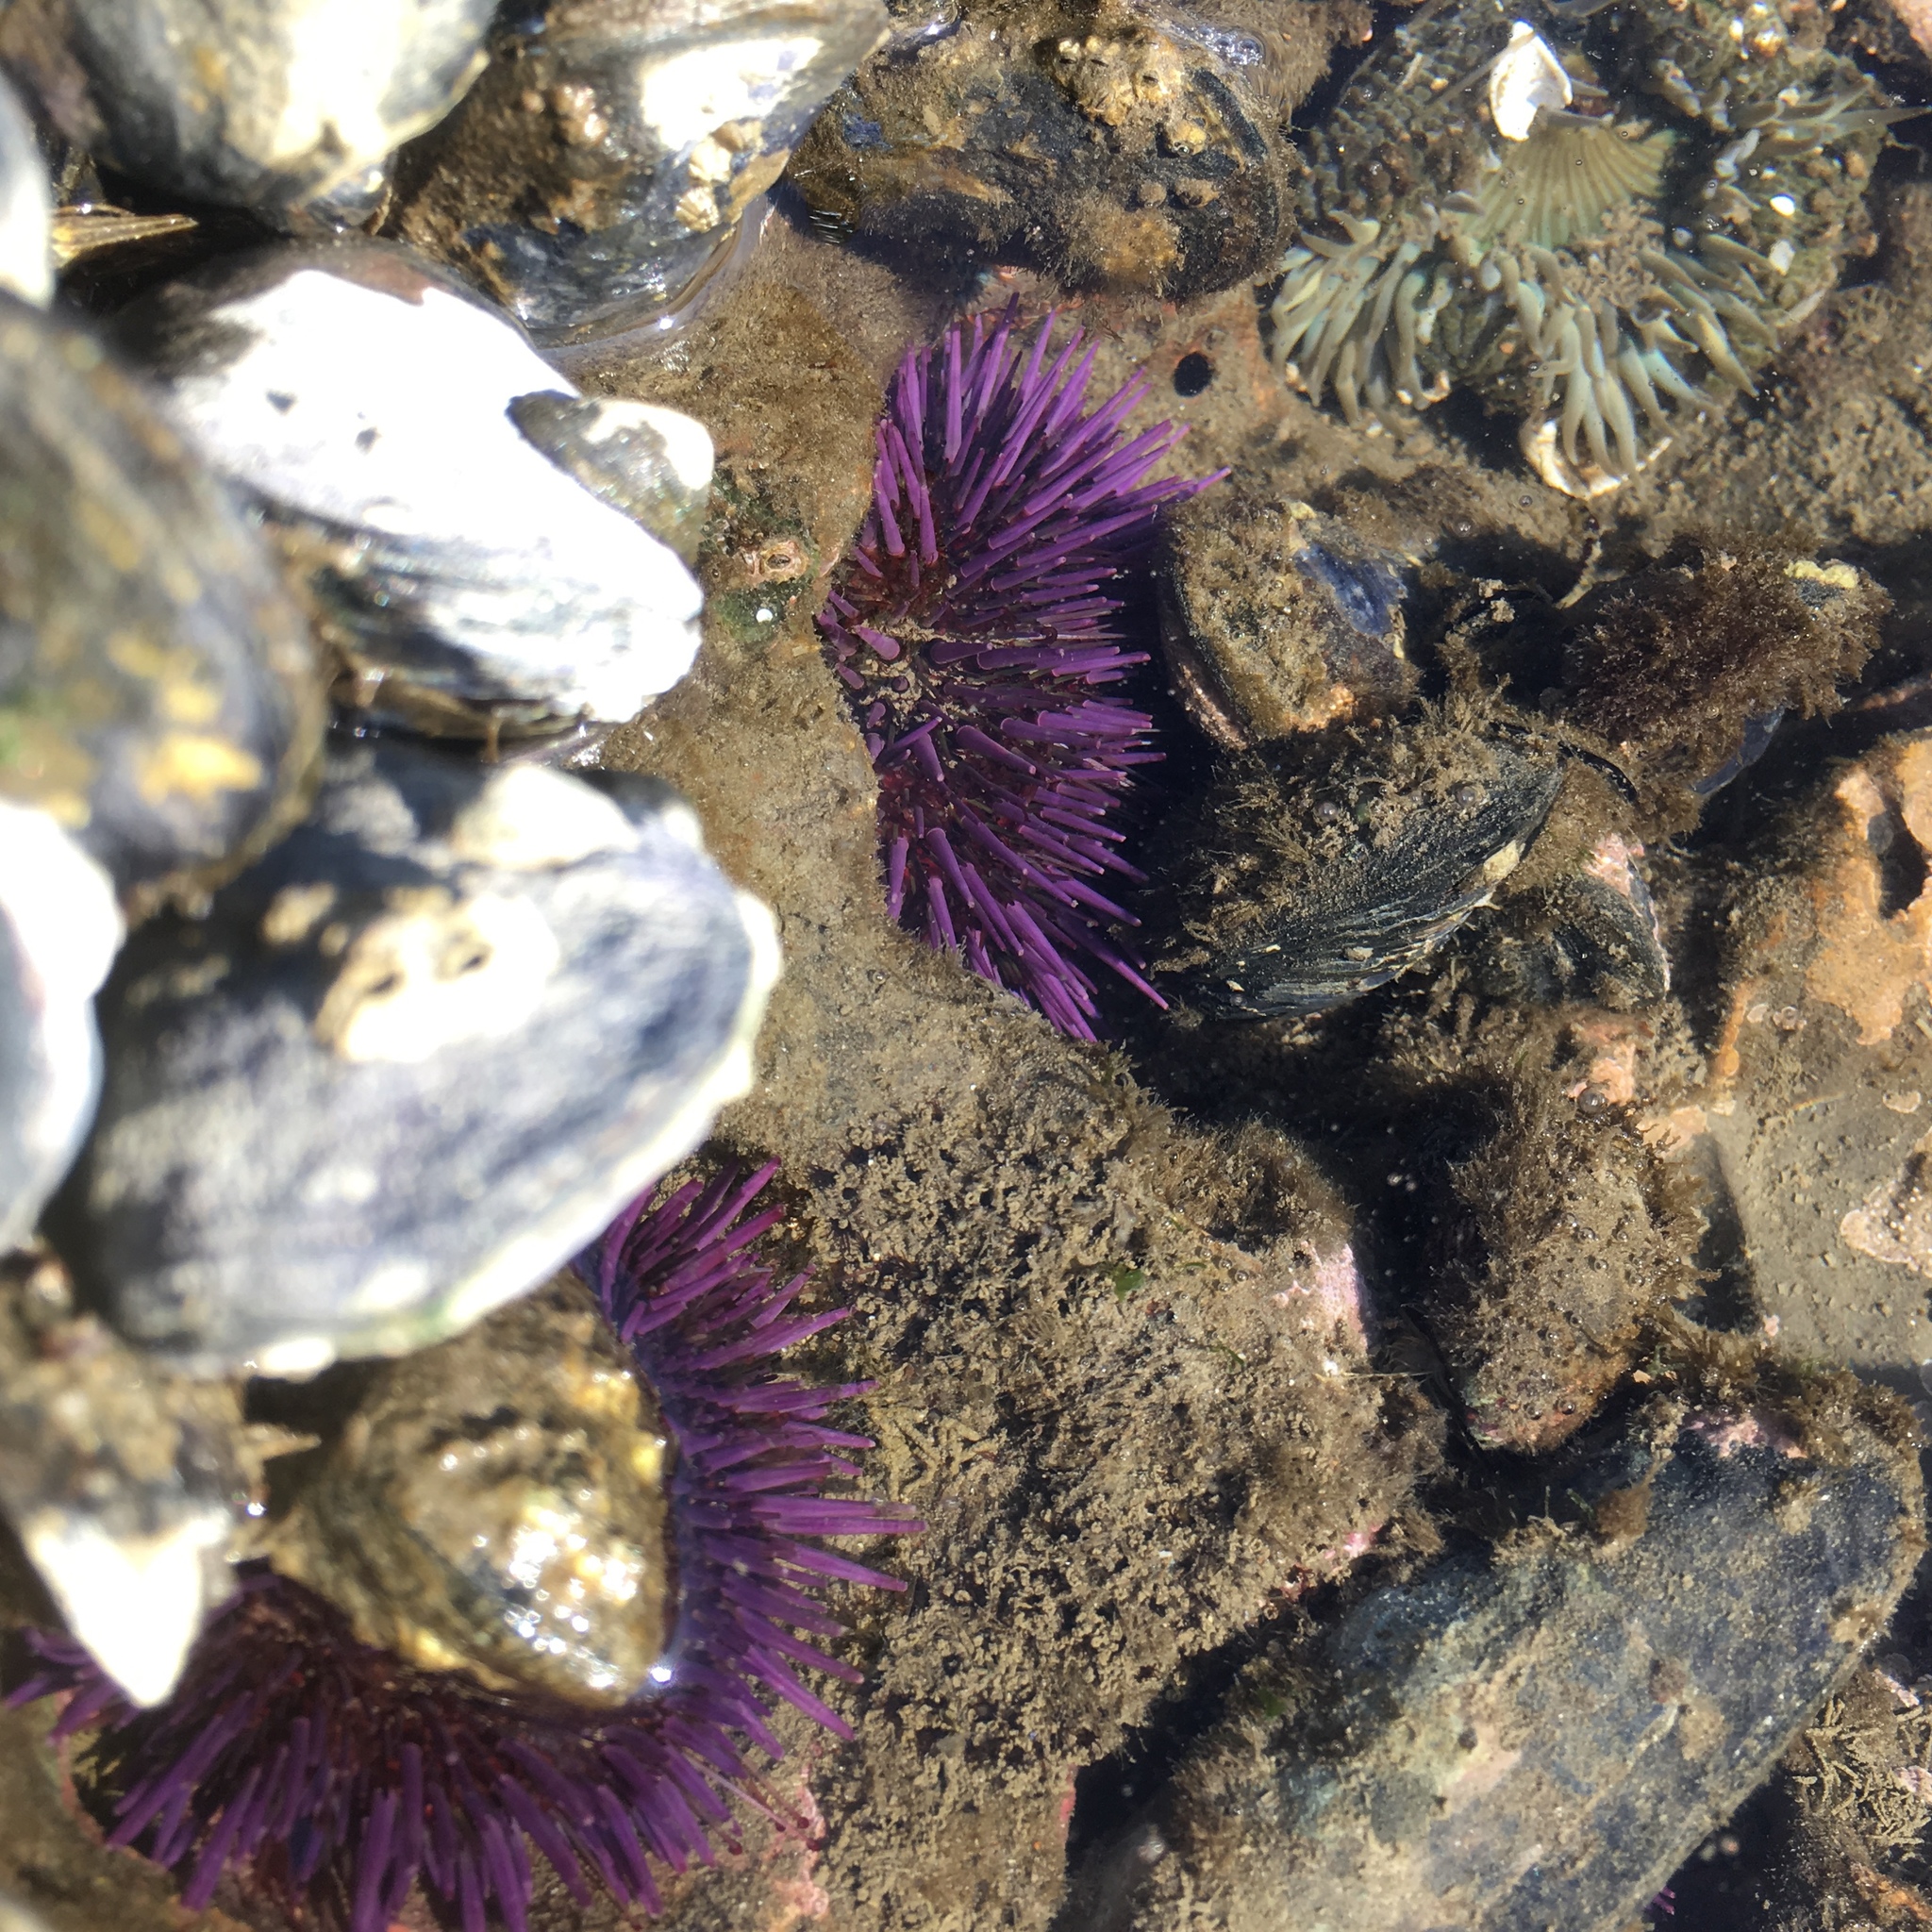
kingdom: Animalia
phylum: Echinodermata
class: Echinoidea
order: Camarodonta
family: Strongylocentrotidae
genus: Strongylocentrotus
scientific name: Strongylocentrotus purpuratus
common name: Purple sea urchin
